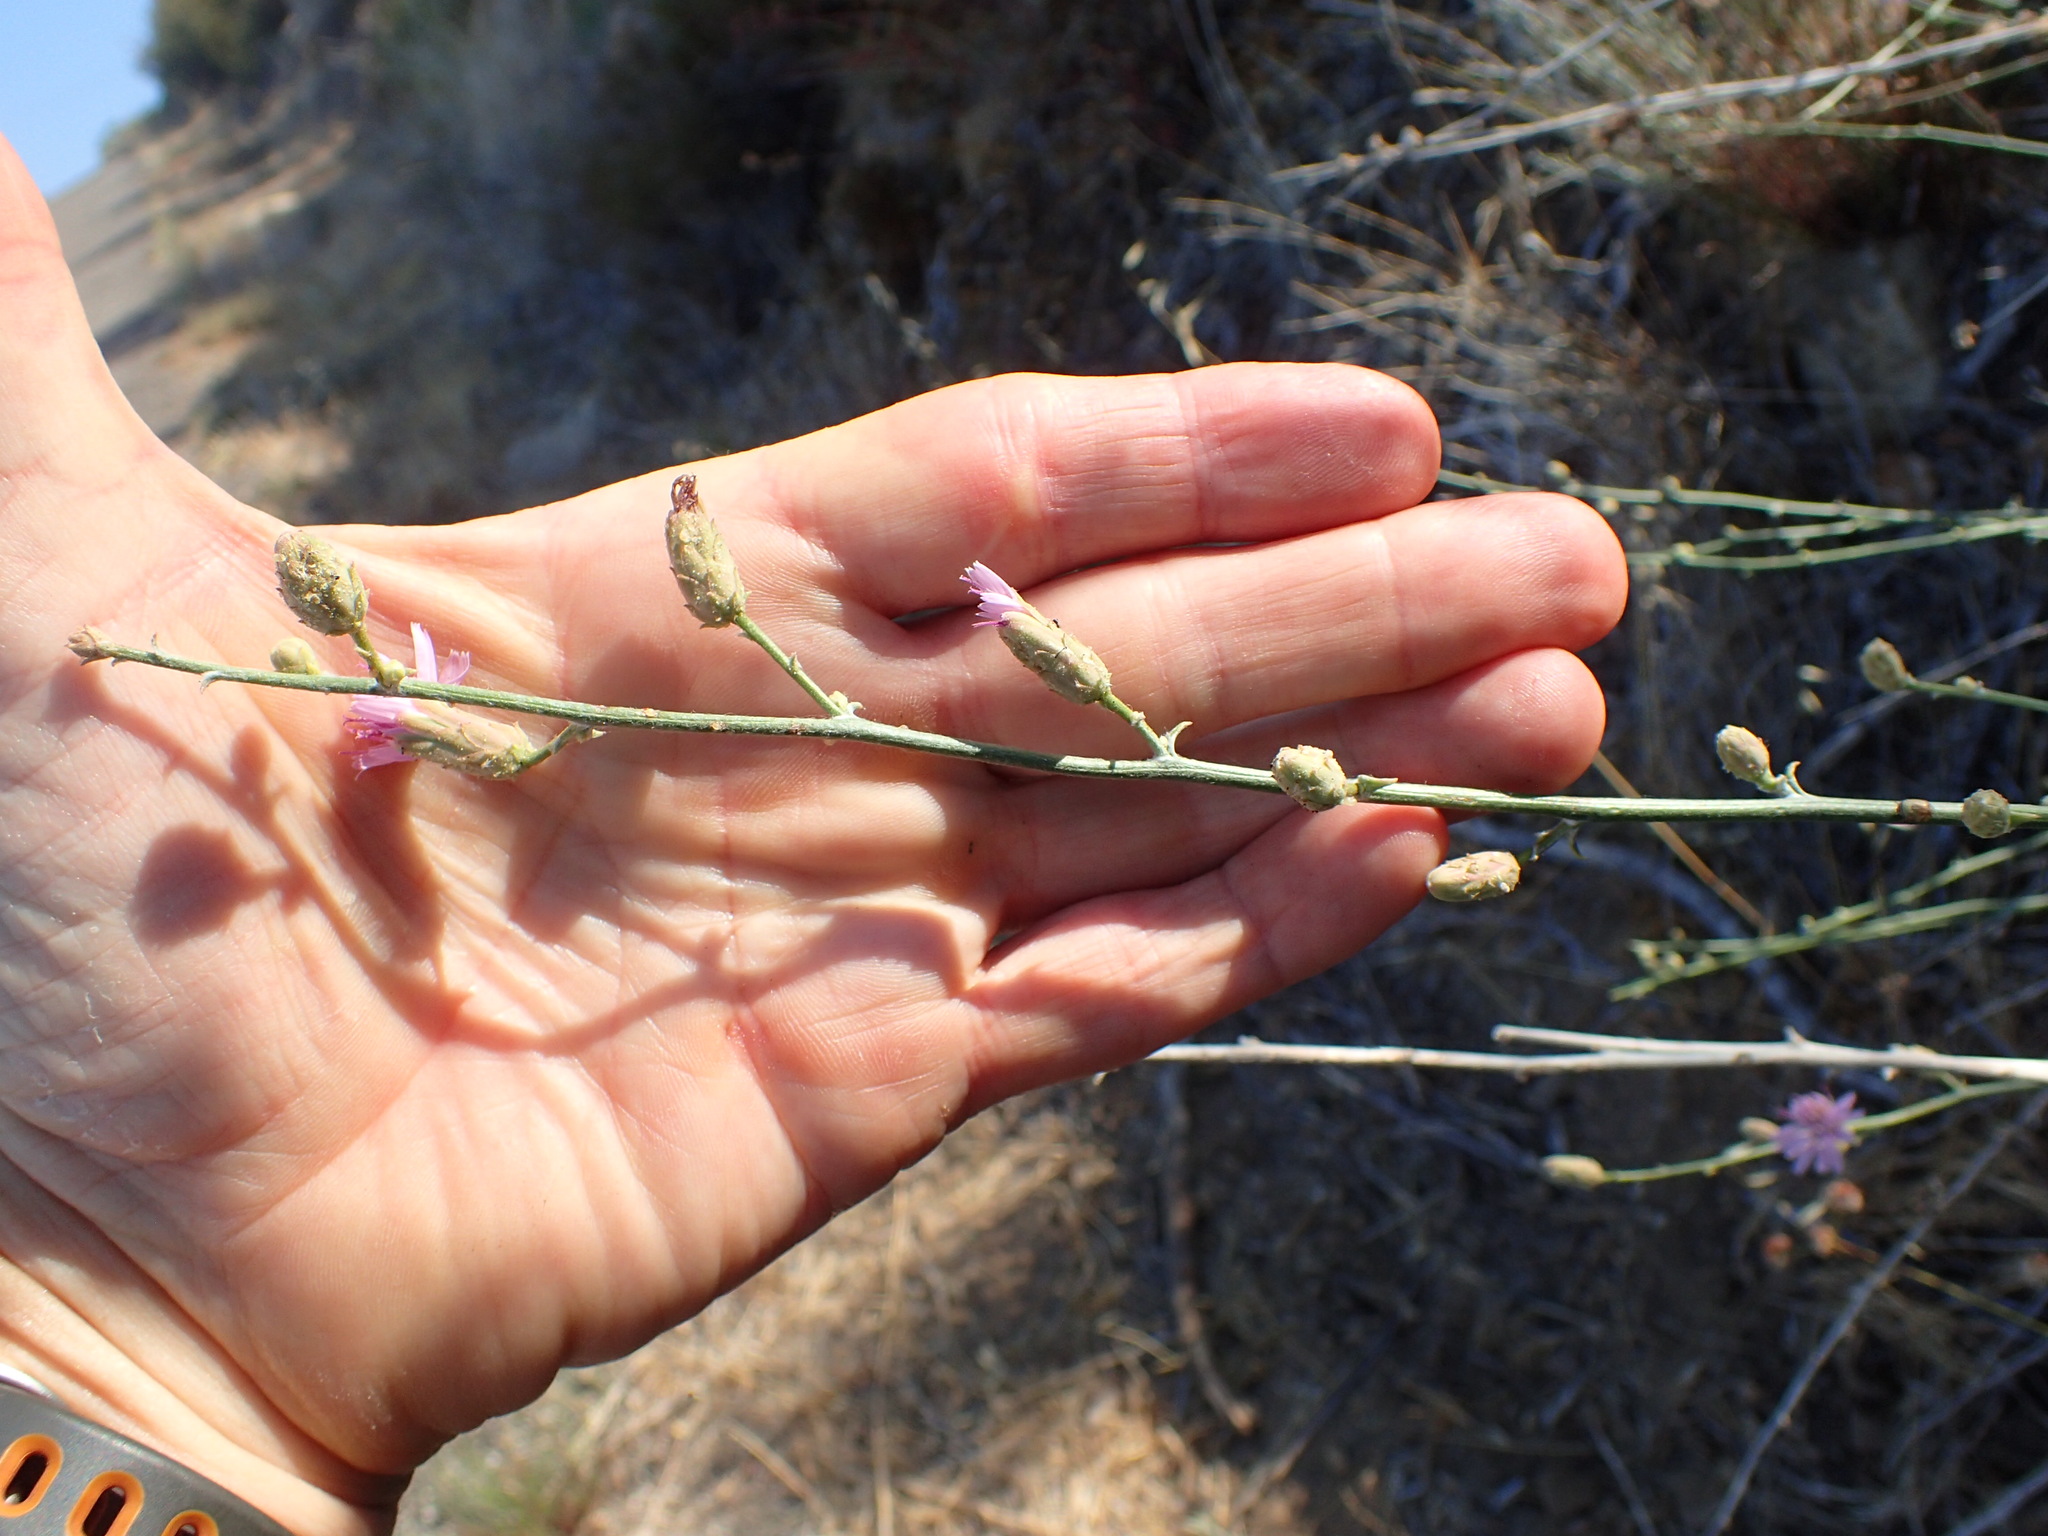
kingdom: Plantae
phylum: Tracheophyta
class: Magnoliopsida
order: Asterales
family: Asteraceae
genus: Stephanomeria
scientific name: Stephanomeria cichoriacea
